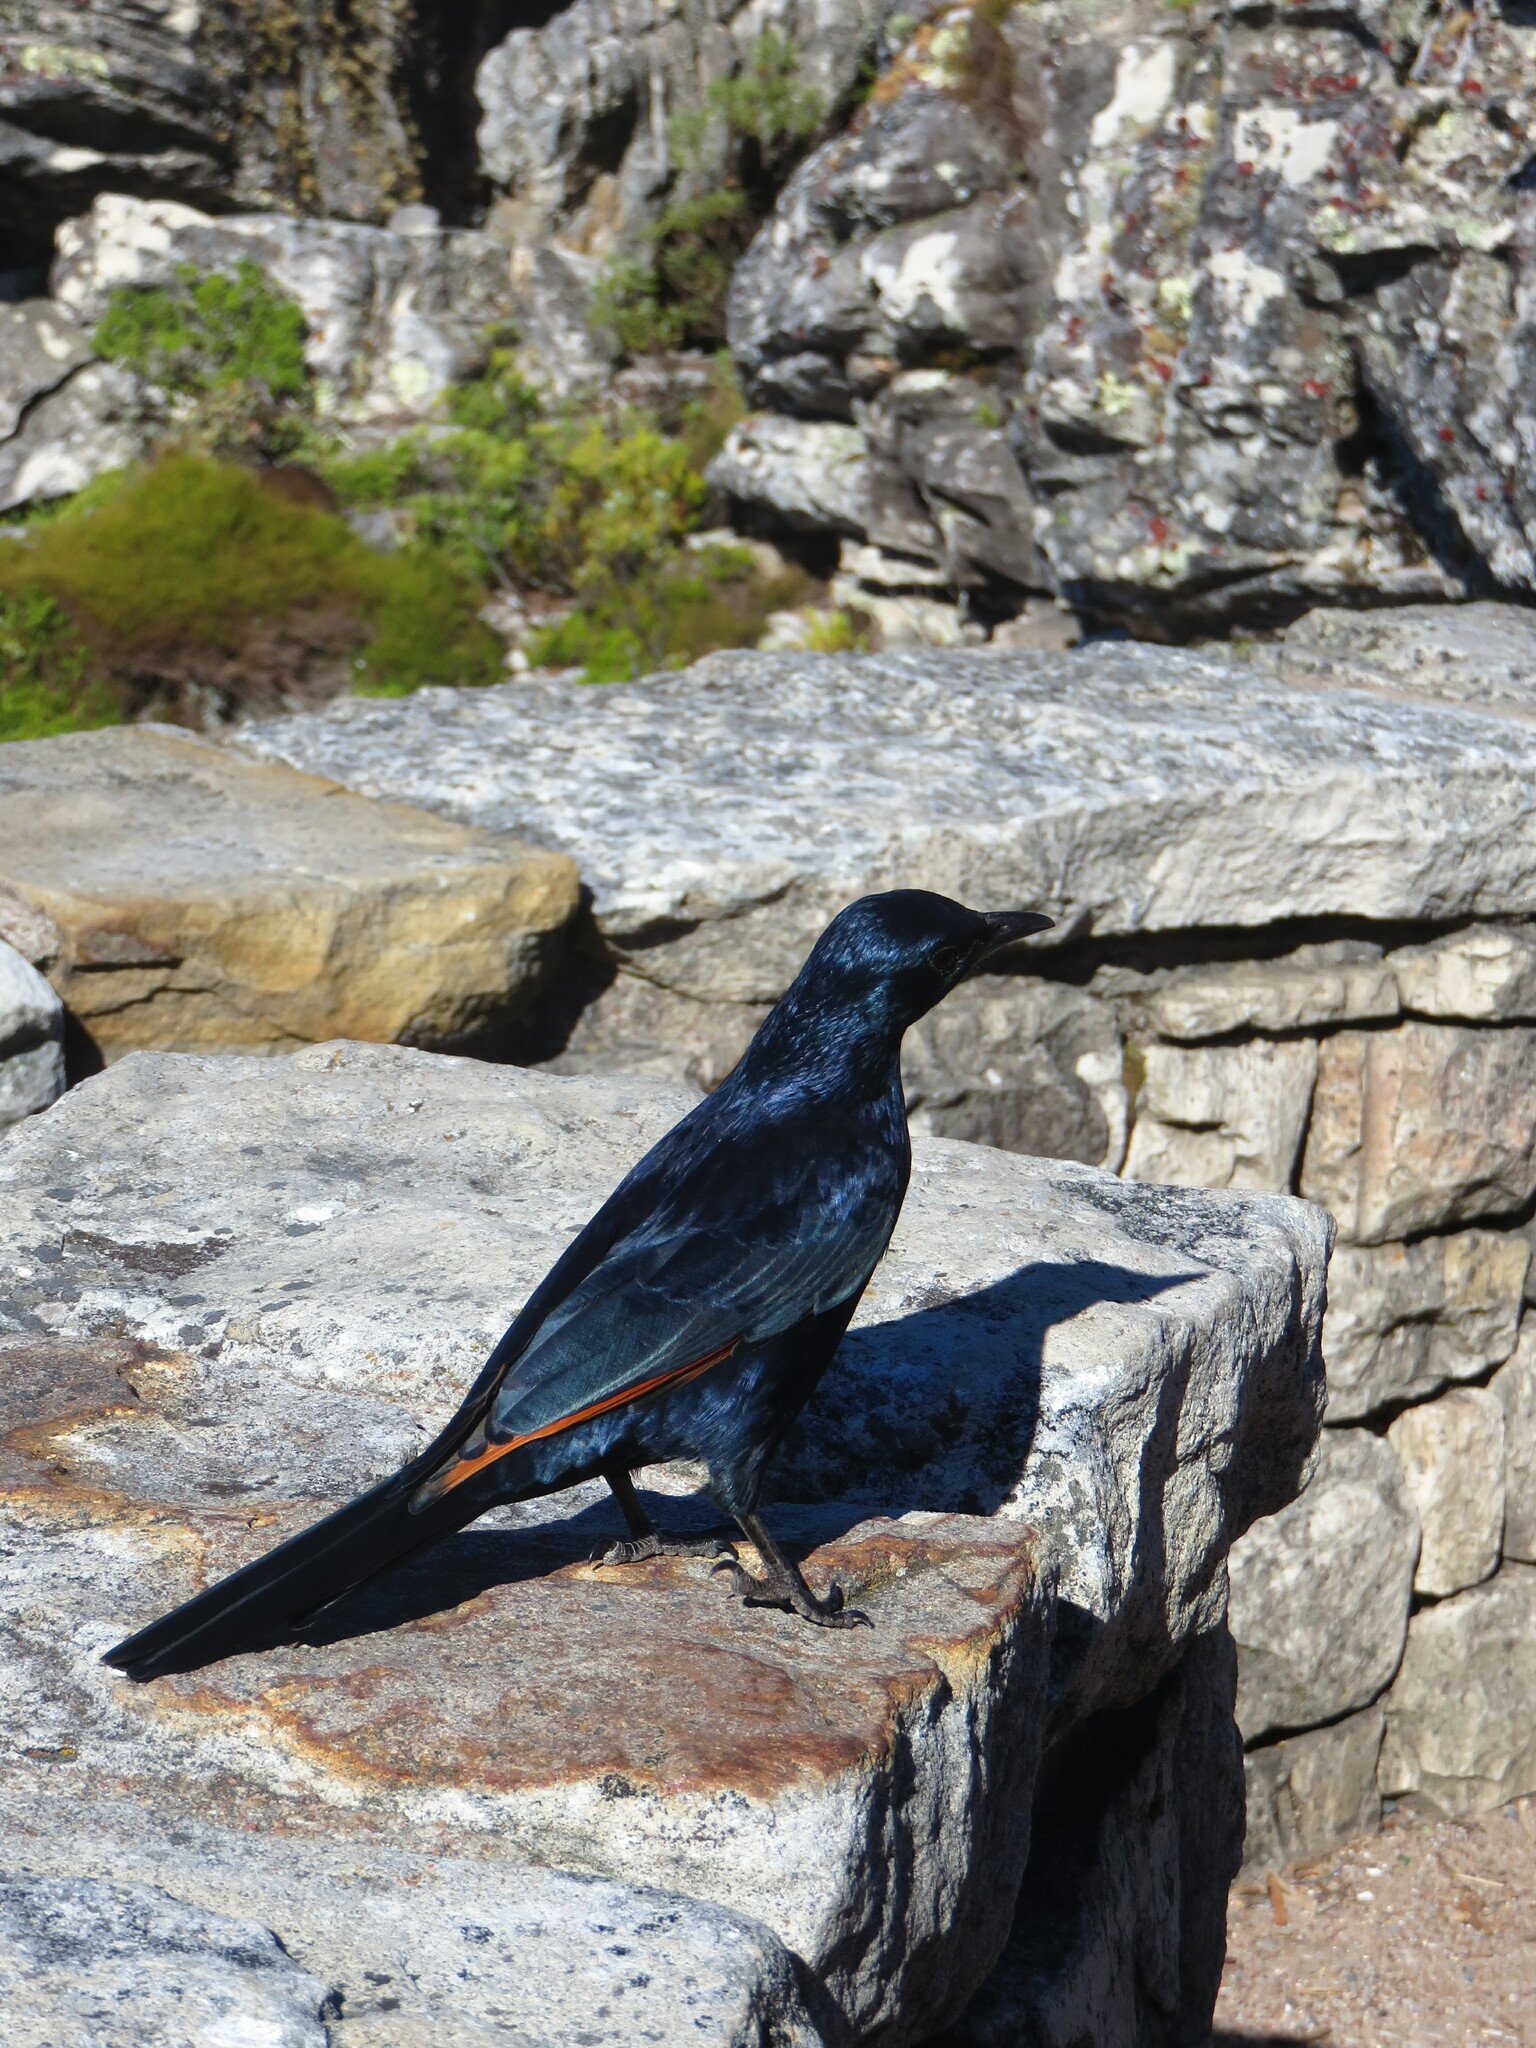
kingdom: Animalia
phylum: Chordata
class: Aves
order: Passeriformes
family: Sturnidae
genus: Onychognathus
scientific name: Onychognathus morio
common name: Red-winged starling
